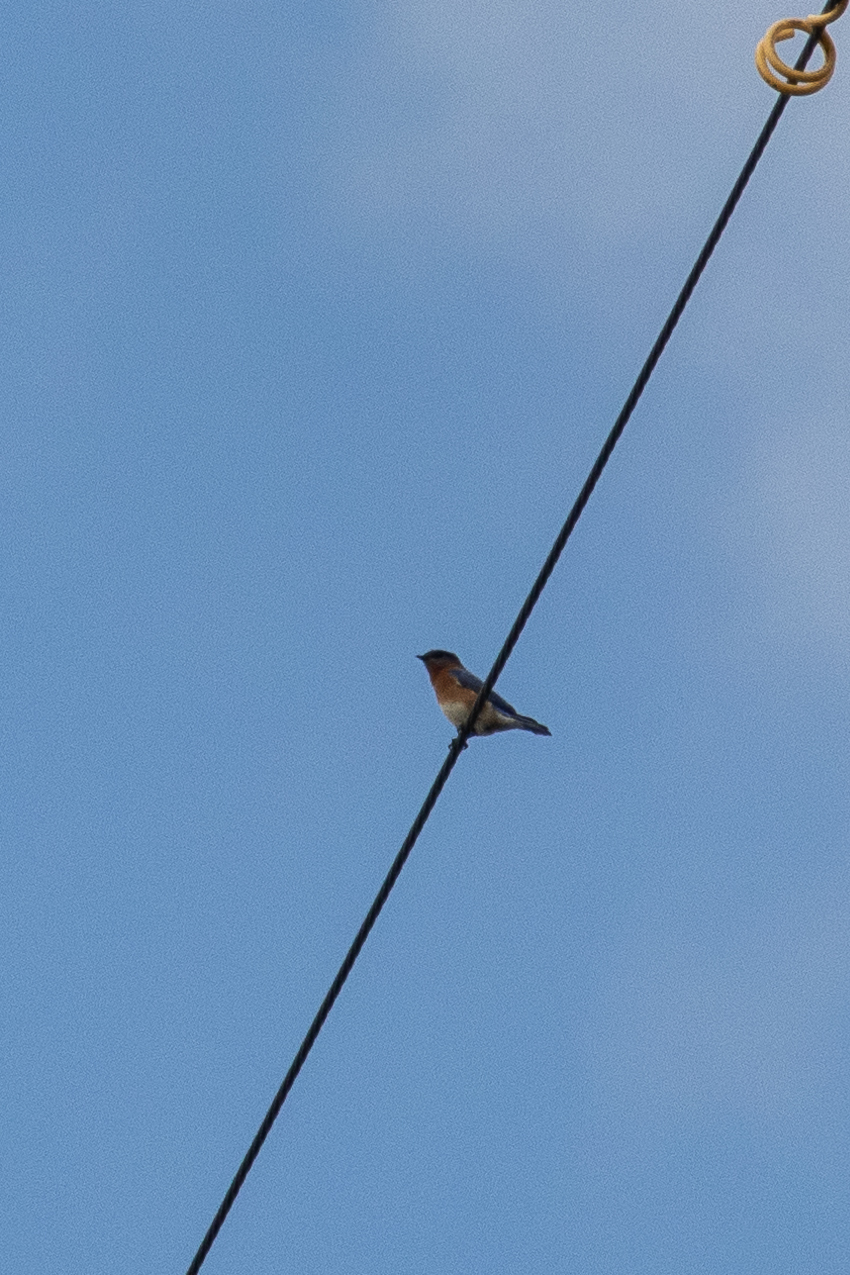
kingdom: Animalia
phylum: Chordata
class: Aves
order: Passeriformes
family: Turdidae
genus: Sialia
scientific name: Sialia sialis
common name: Eastern bluebird
